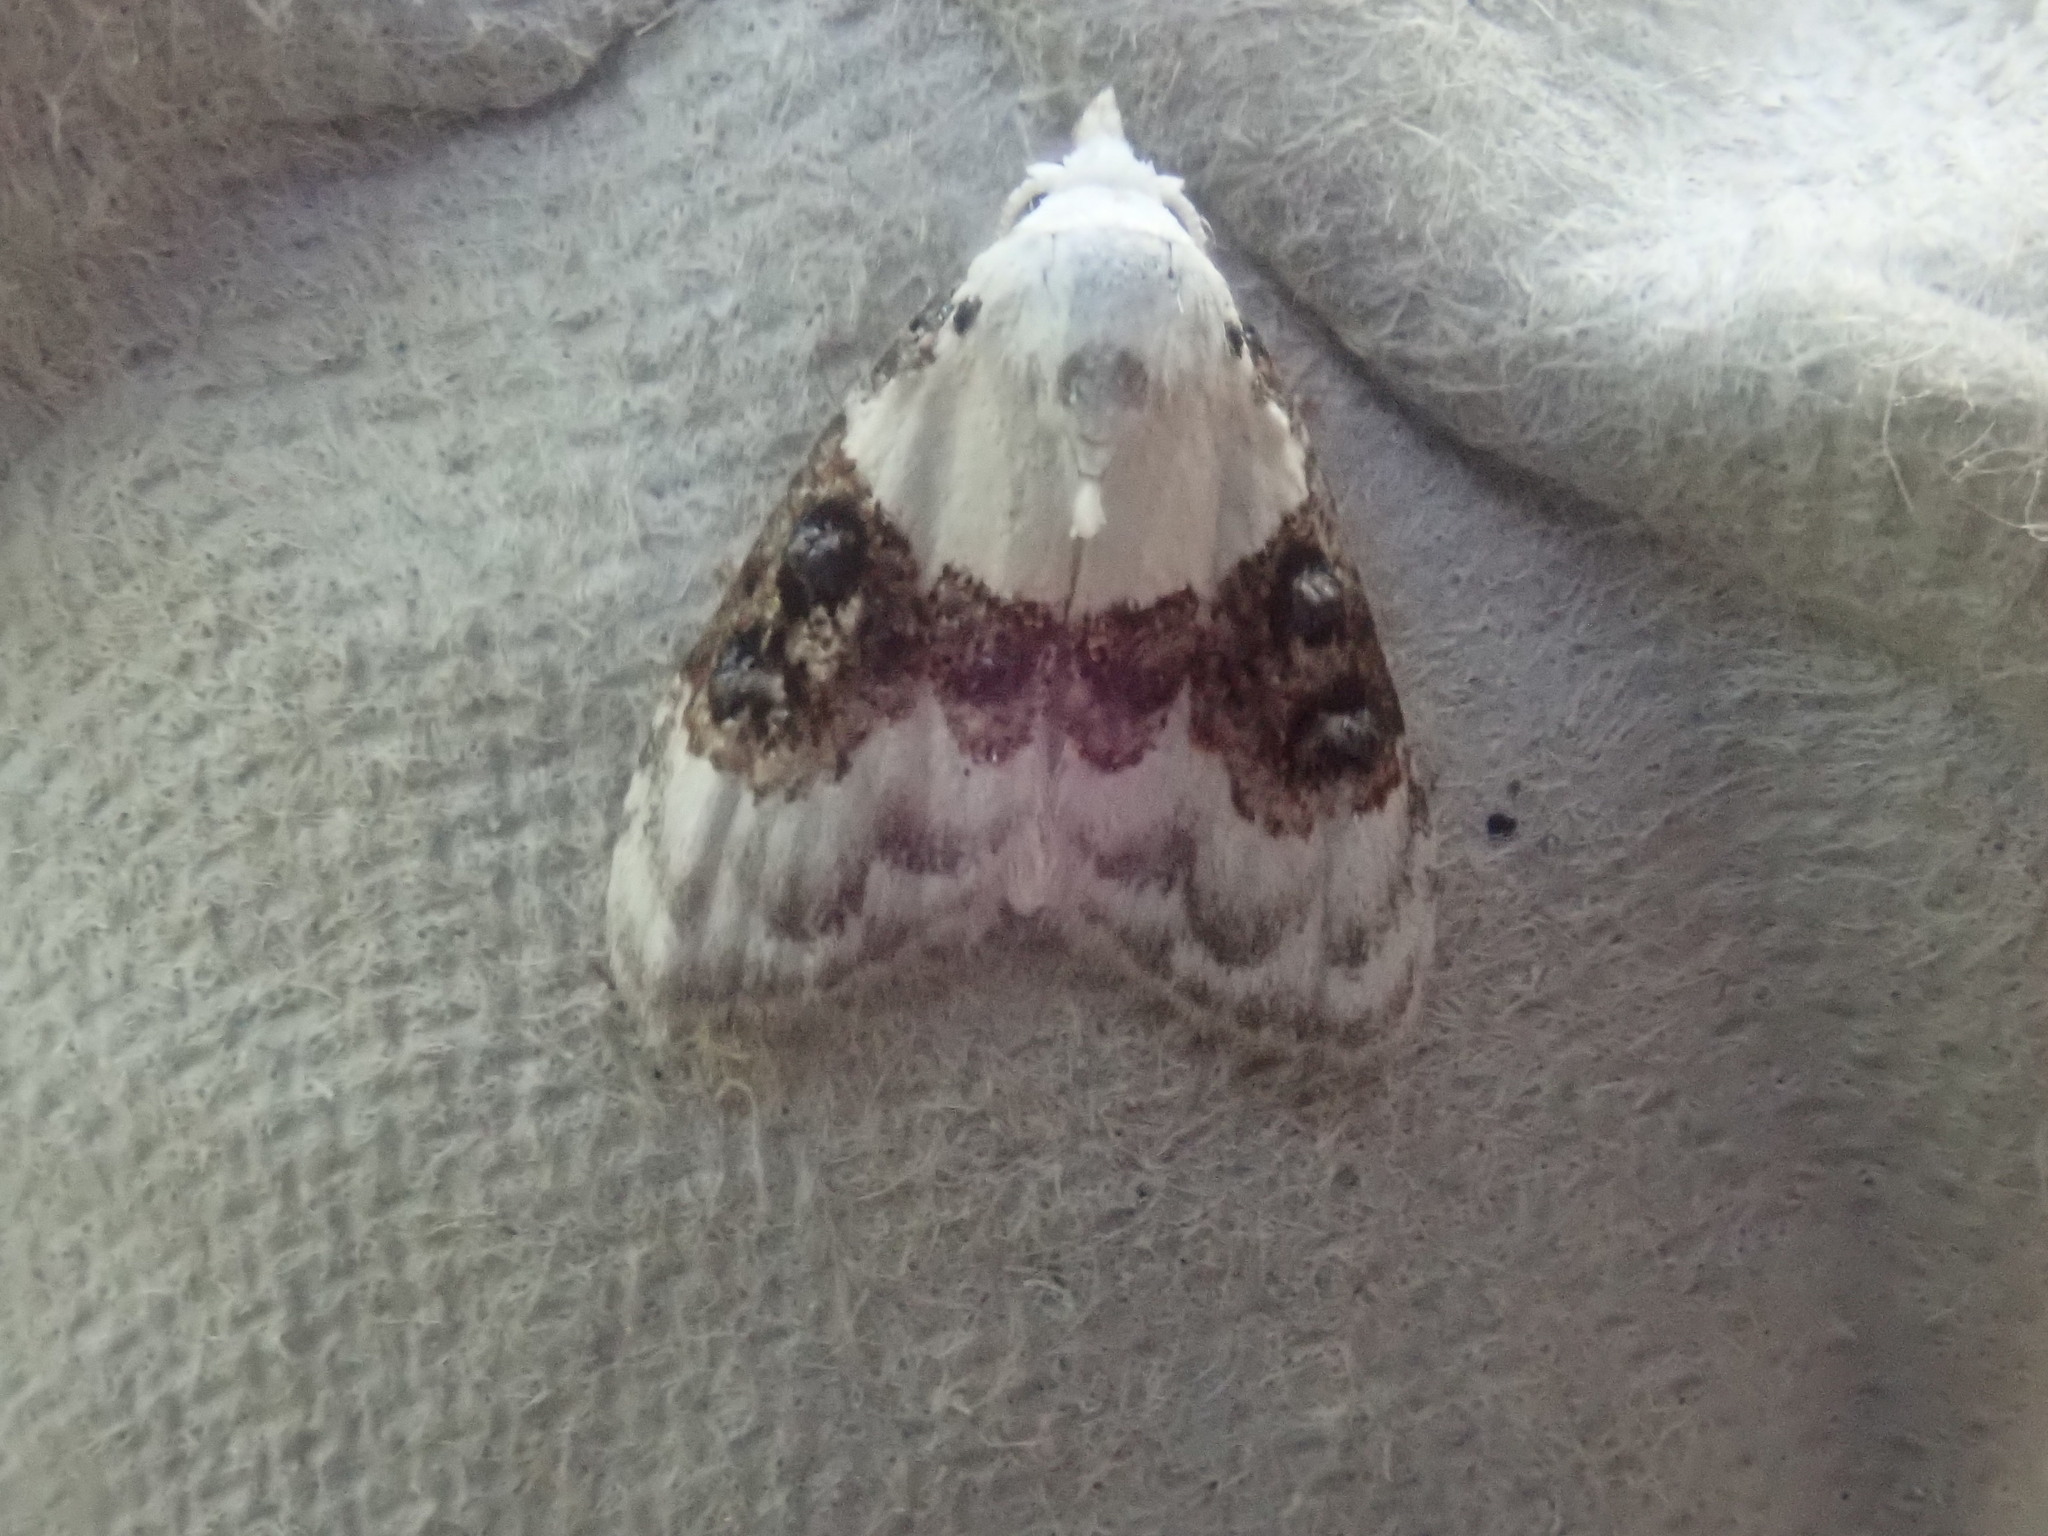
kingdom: Animalia
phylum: Arthropoda
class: Insecta
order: Lepidoptera
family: Nolidae
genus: Nola
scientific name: Nola pustulata
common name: Sharp-blotched nola moth
